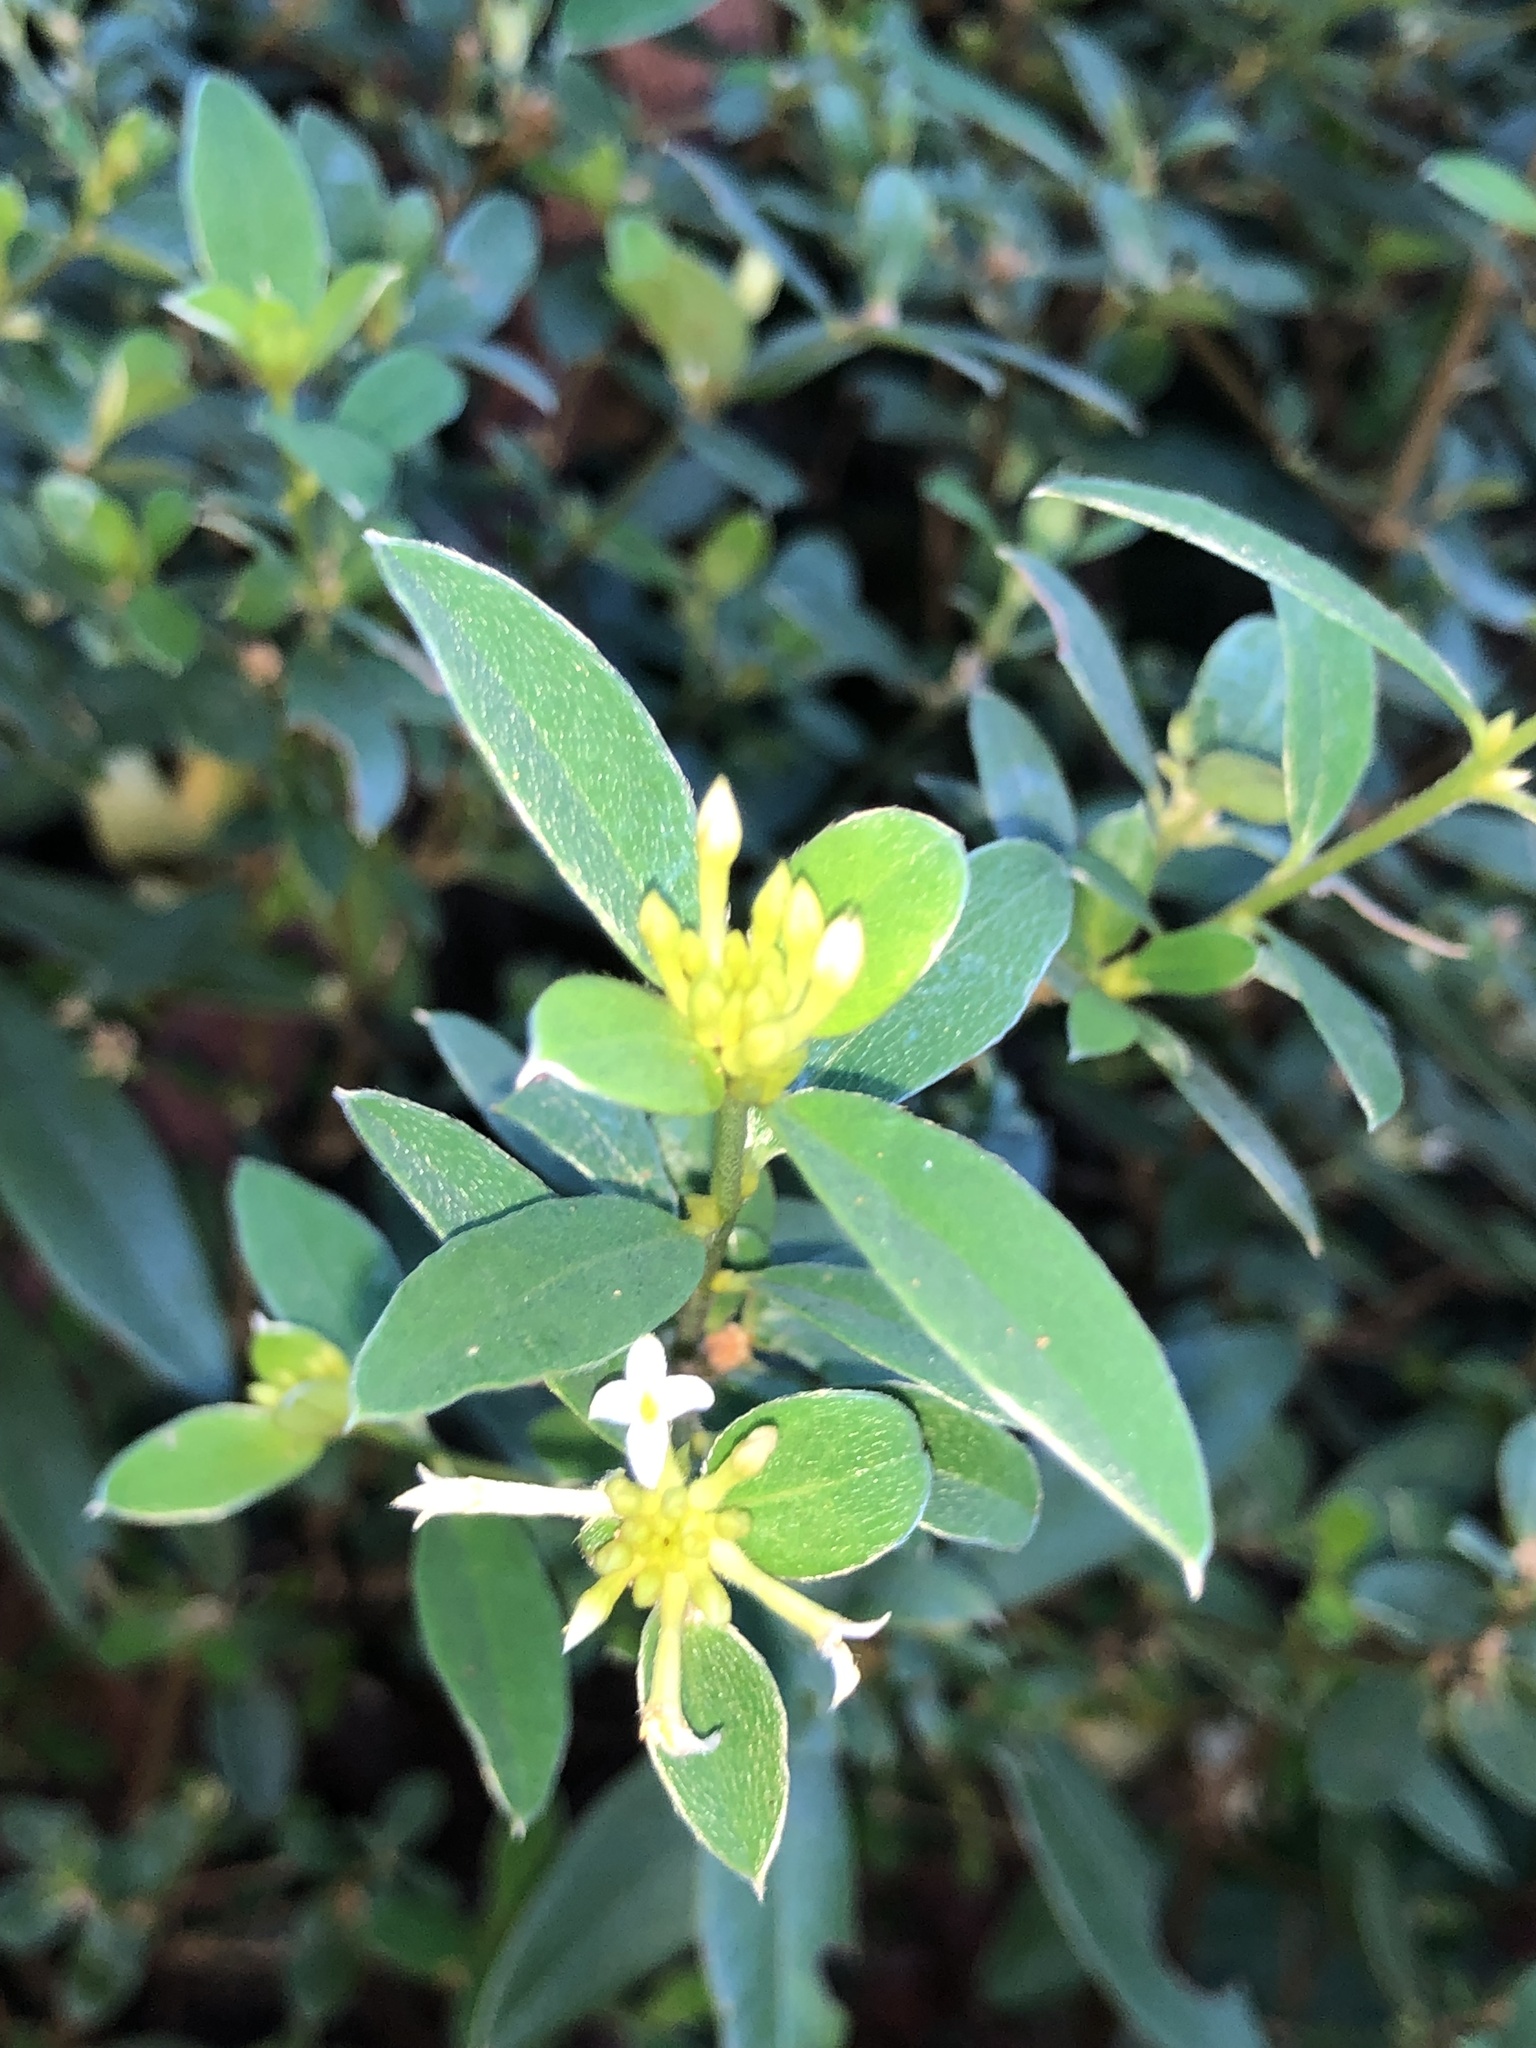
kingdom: Plantae
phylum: Tracheophyta
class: Magnoliopsida
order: Malvales
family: Thymelaeaceae
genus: Pimelea
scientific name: Pimelea gigandra
